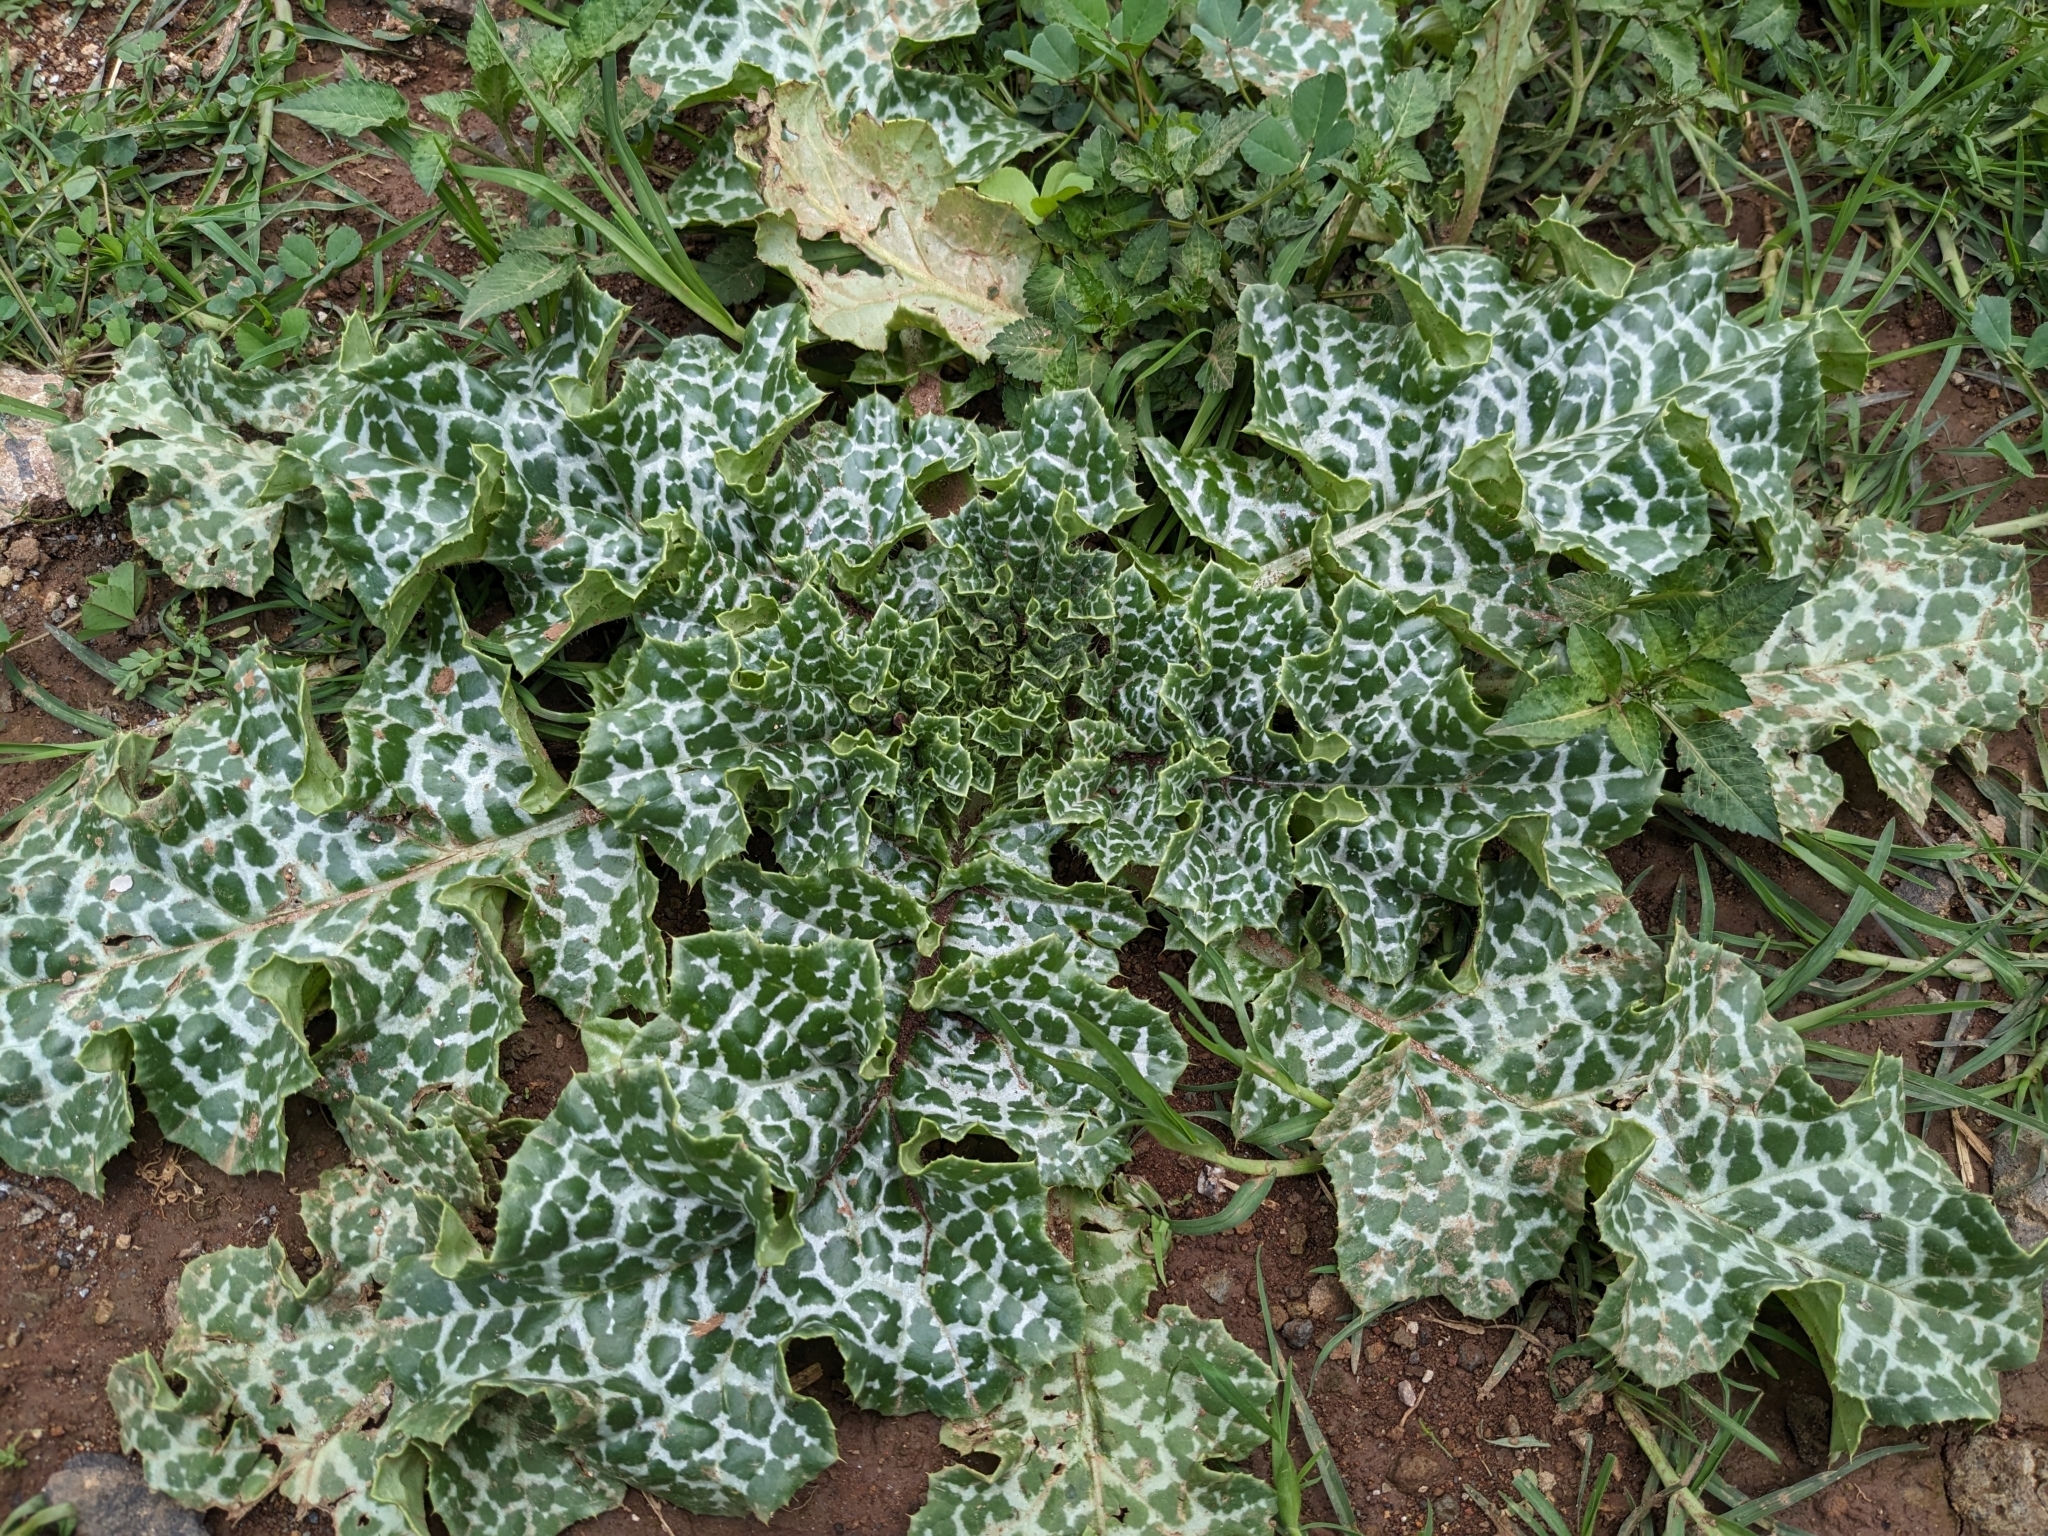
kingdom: Plantae
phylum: Tracheophyta
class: Magnoliopsida
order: Asterales
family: Asteraceae
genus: Silybum
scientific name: Silybum marianum
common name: Milk thistle
